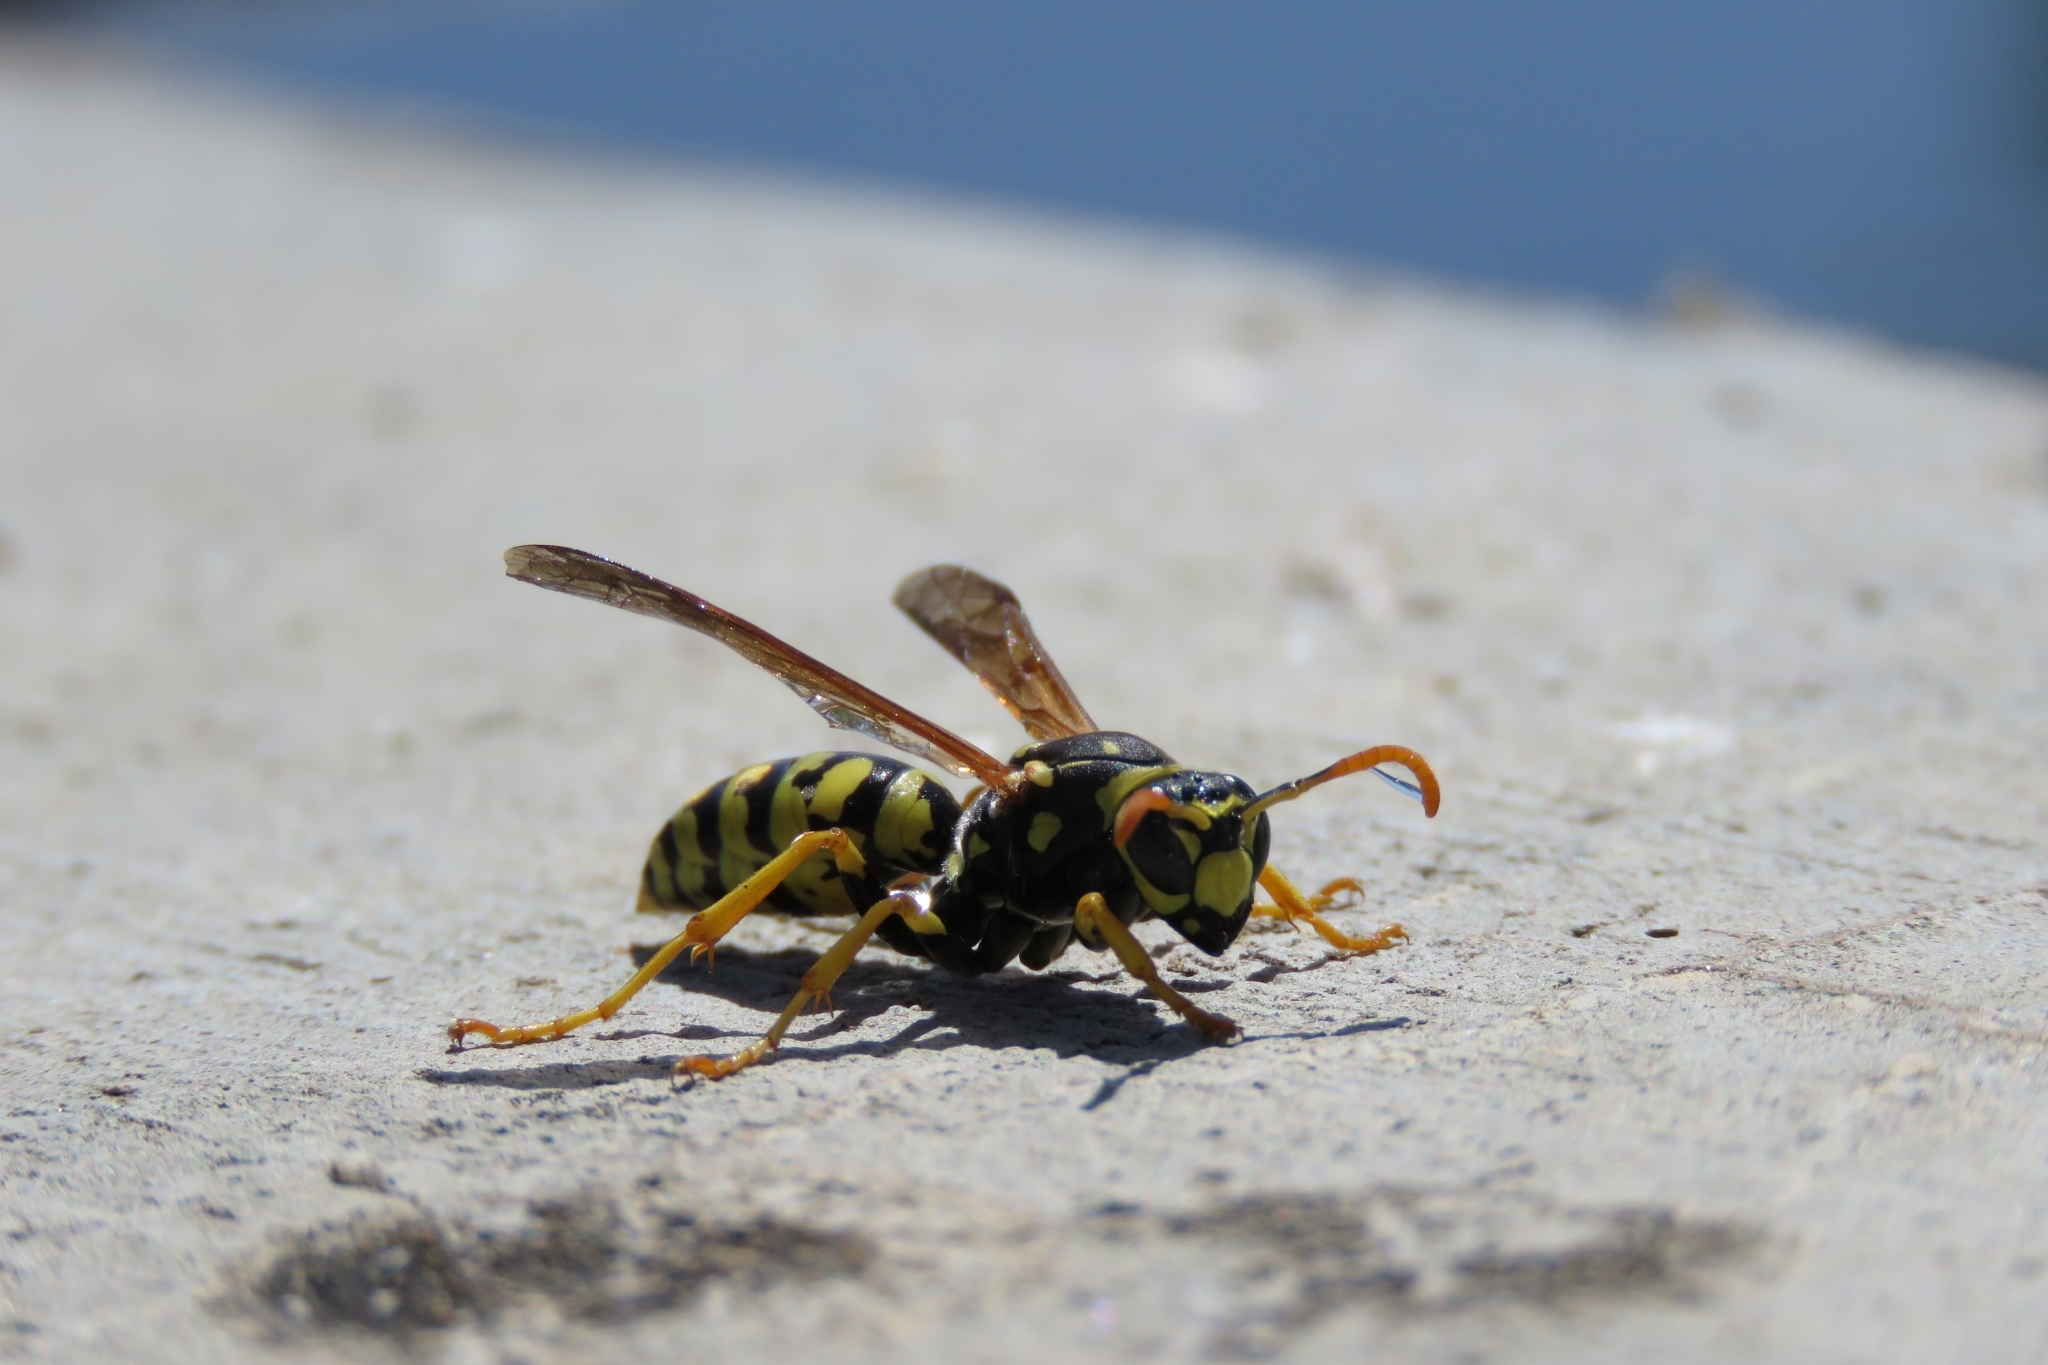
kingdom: Animalia
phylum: Arthropoda
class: Insecta
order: Hymenoptera
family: Eumenidae
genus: Polistes
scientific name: Polistes dominula
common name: Paper wasp
